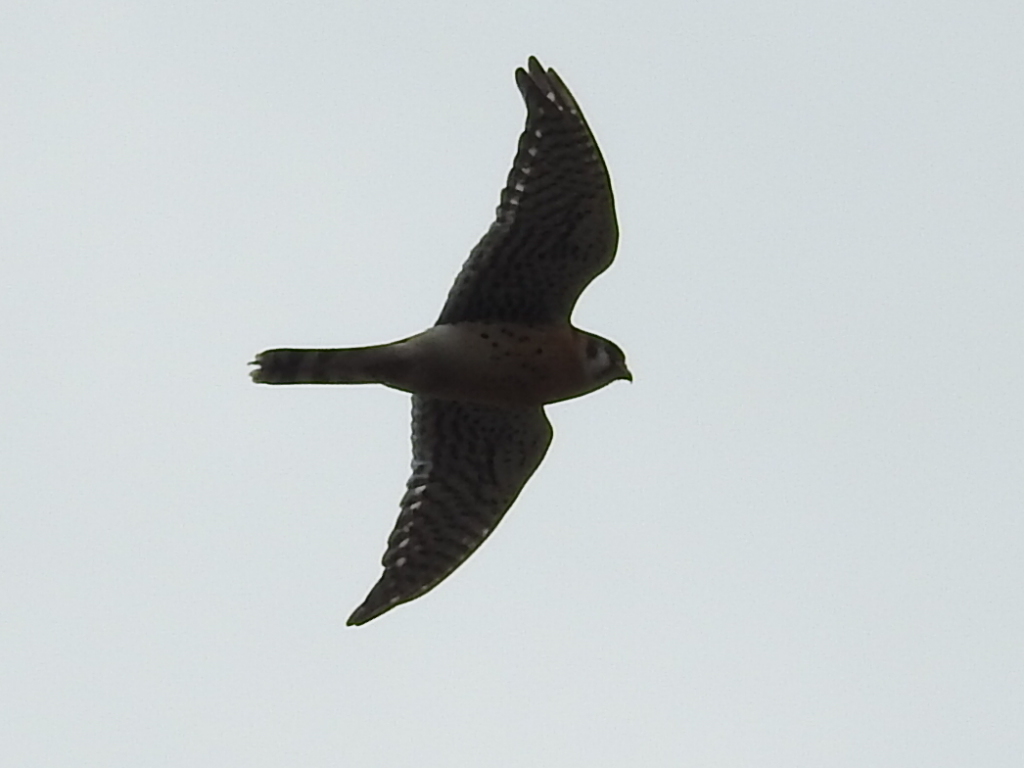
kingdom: Animalia
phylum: Chordata
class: Aves
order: Falconiformes
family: Falconidae
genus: Falco
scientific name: Falco sparverius
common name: American kestrel
